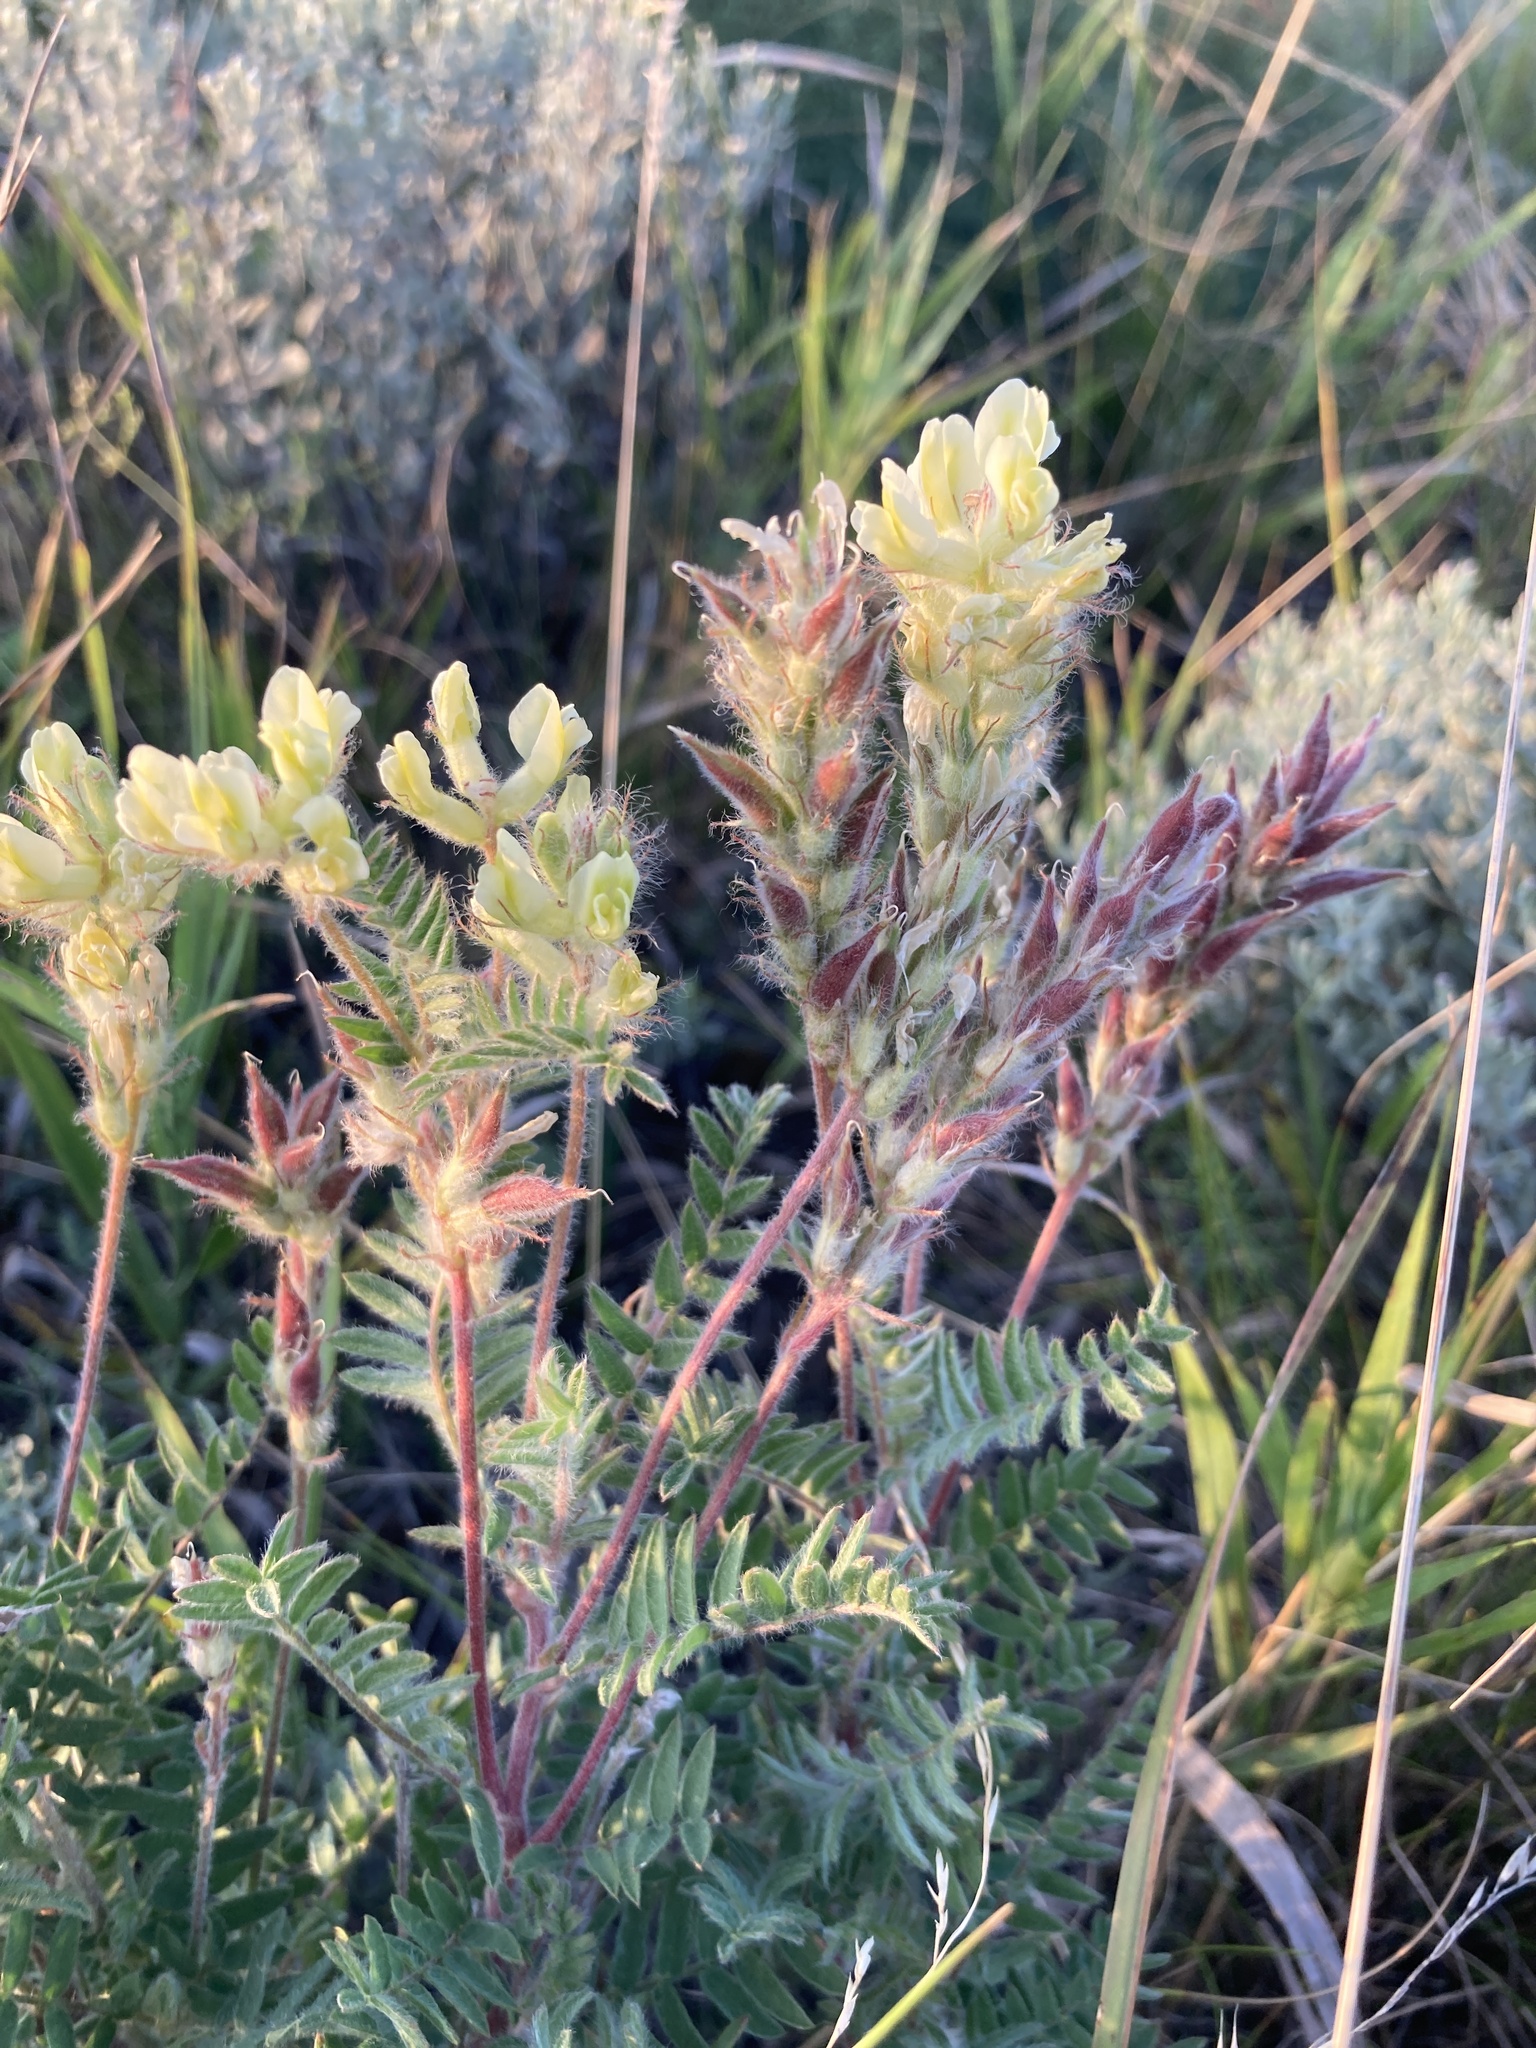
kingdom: Plantae
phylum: Tracheophyta
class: Magnoliopsida
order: Fabales
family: Fabaceae
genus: Oxytropis
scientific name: Oxytropis pilosa
